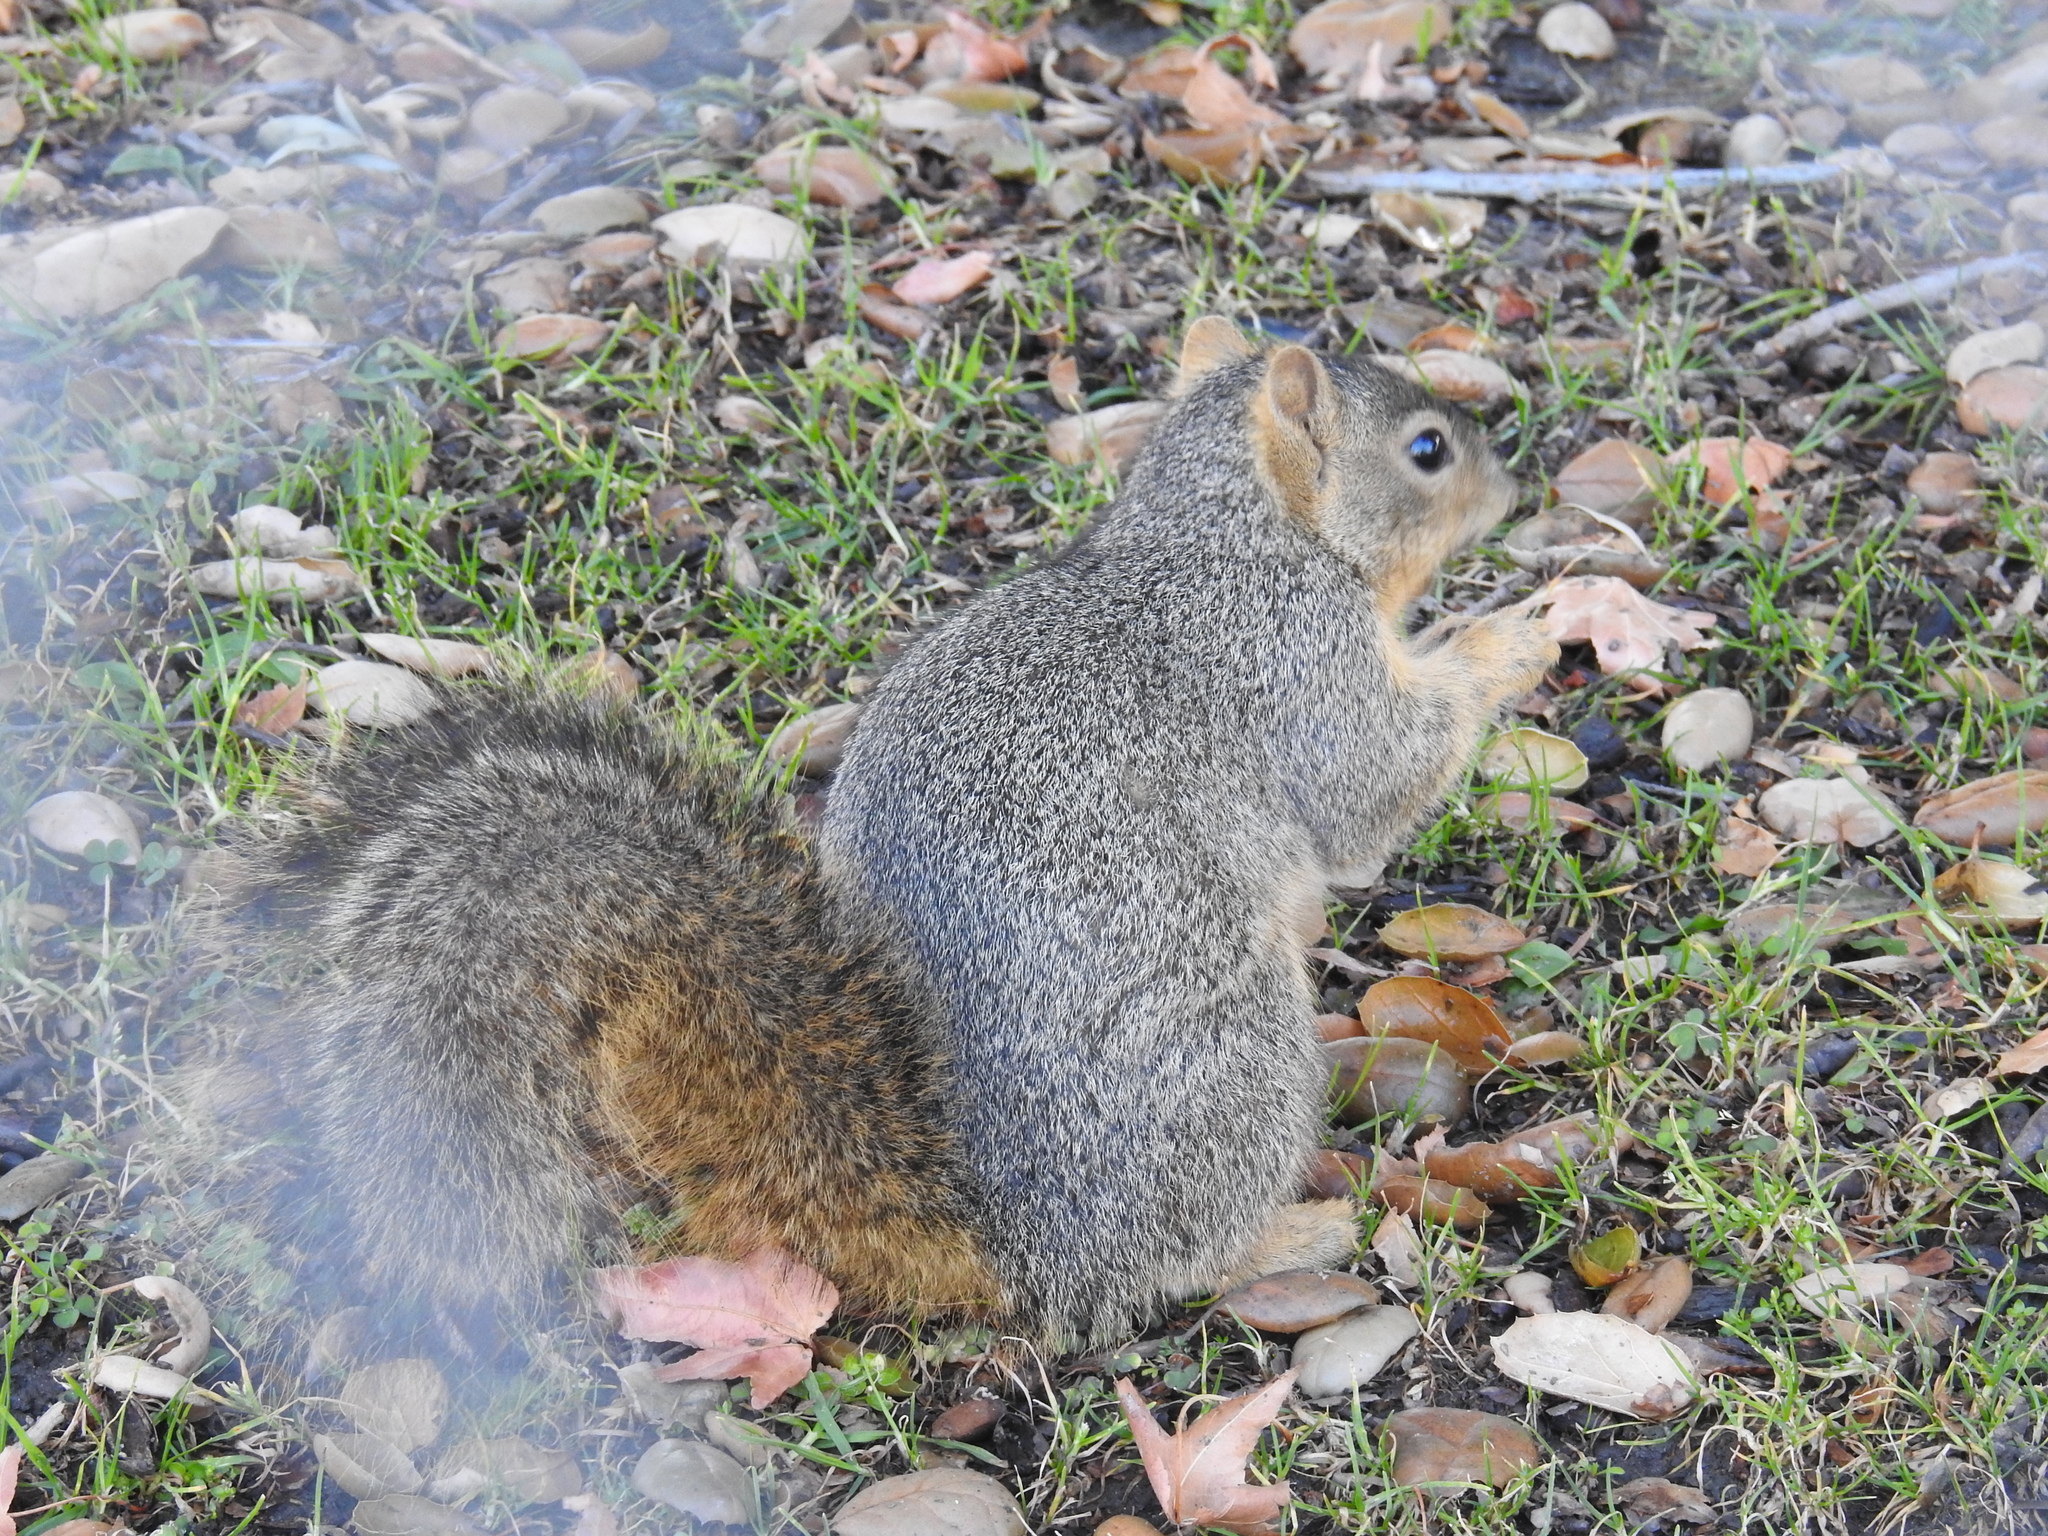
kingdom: Animalia
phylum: Chordata
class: Mammalia
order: Rodentia
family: Sciuridae
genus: Sciurus
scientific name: Sciurus niger
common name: Fox squirrel
